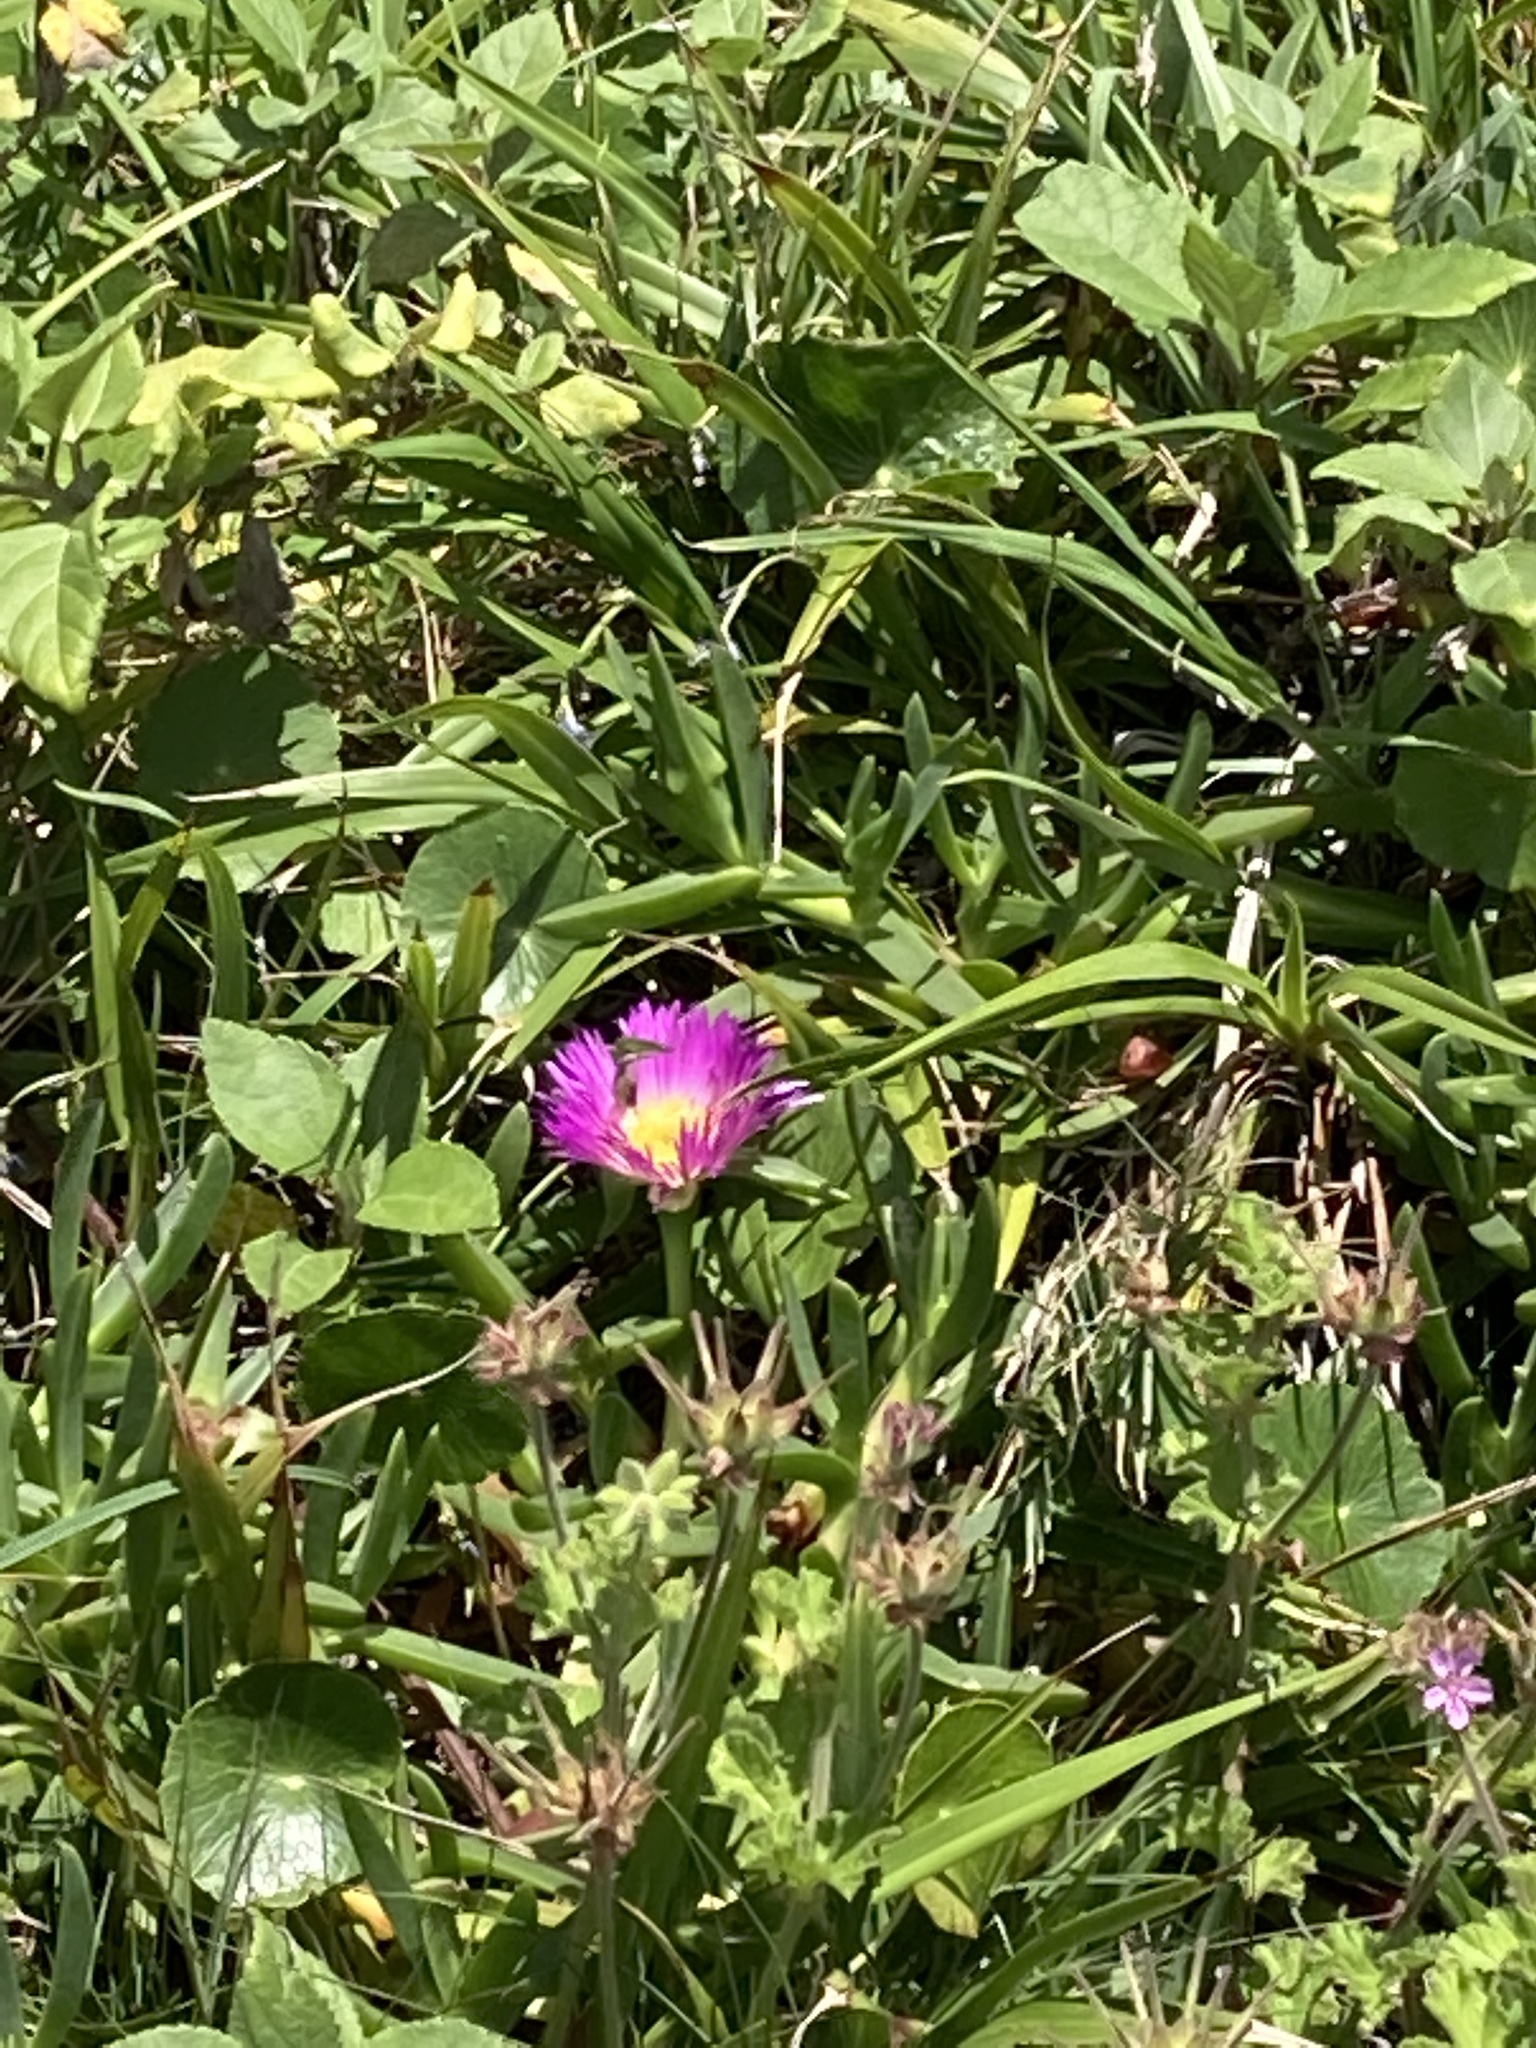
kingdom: Plantae
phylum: Tracheophyta
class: Magnoliopsida
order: Caryophyllales
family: Aizoaceae
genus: Carpobrotus
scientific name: Carpobrotus glaucescens
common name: Angular sea-fig
